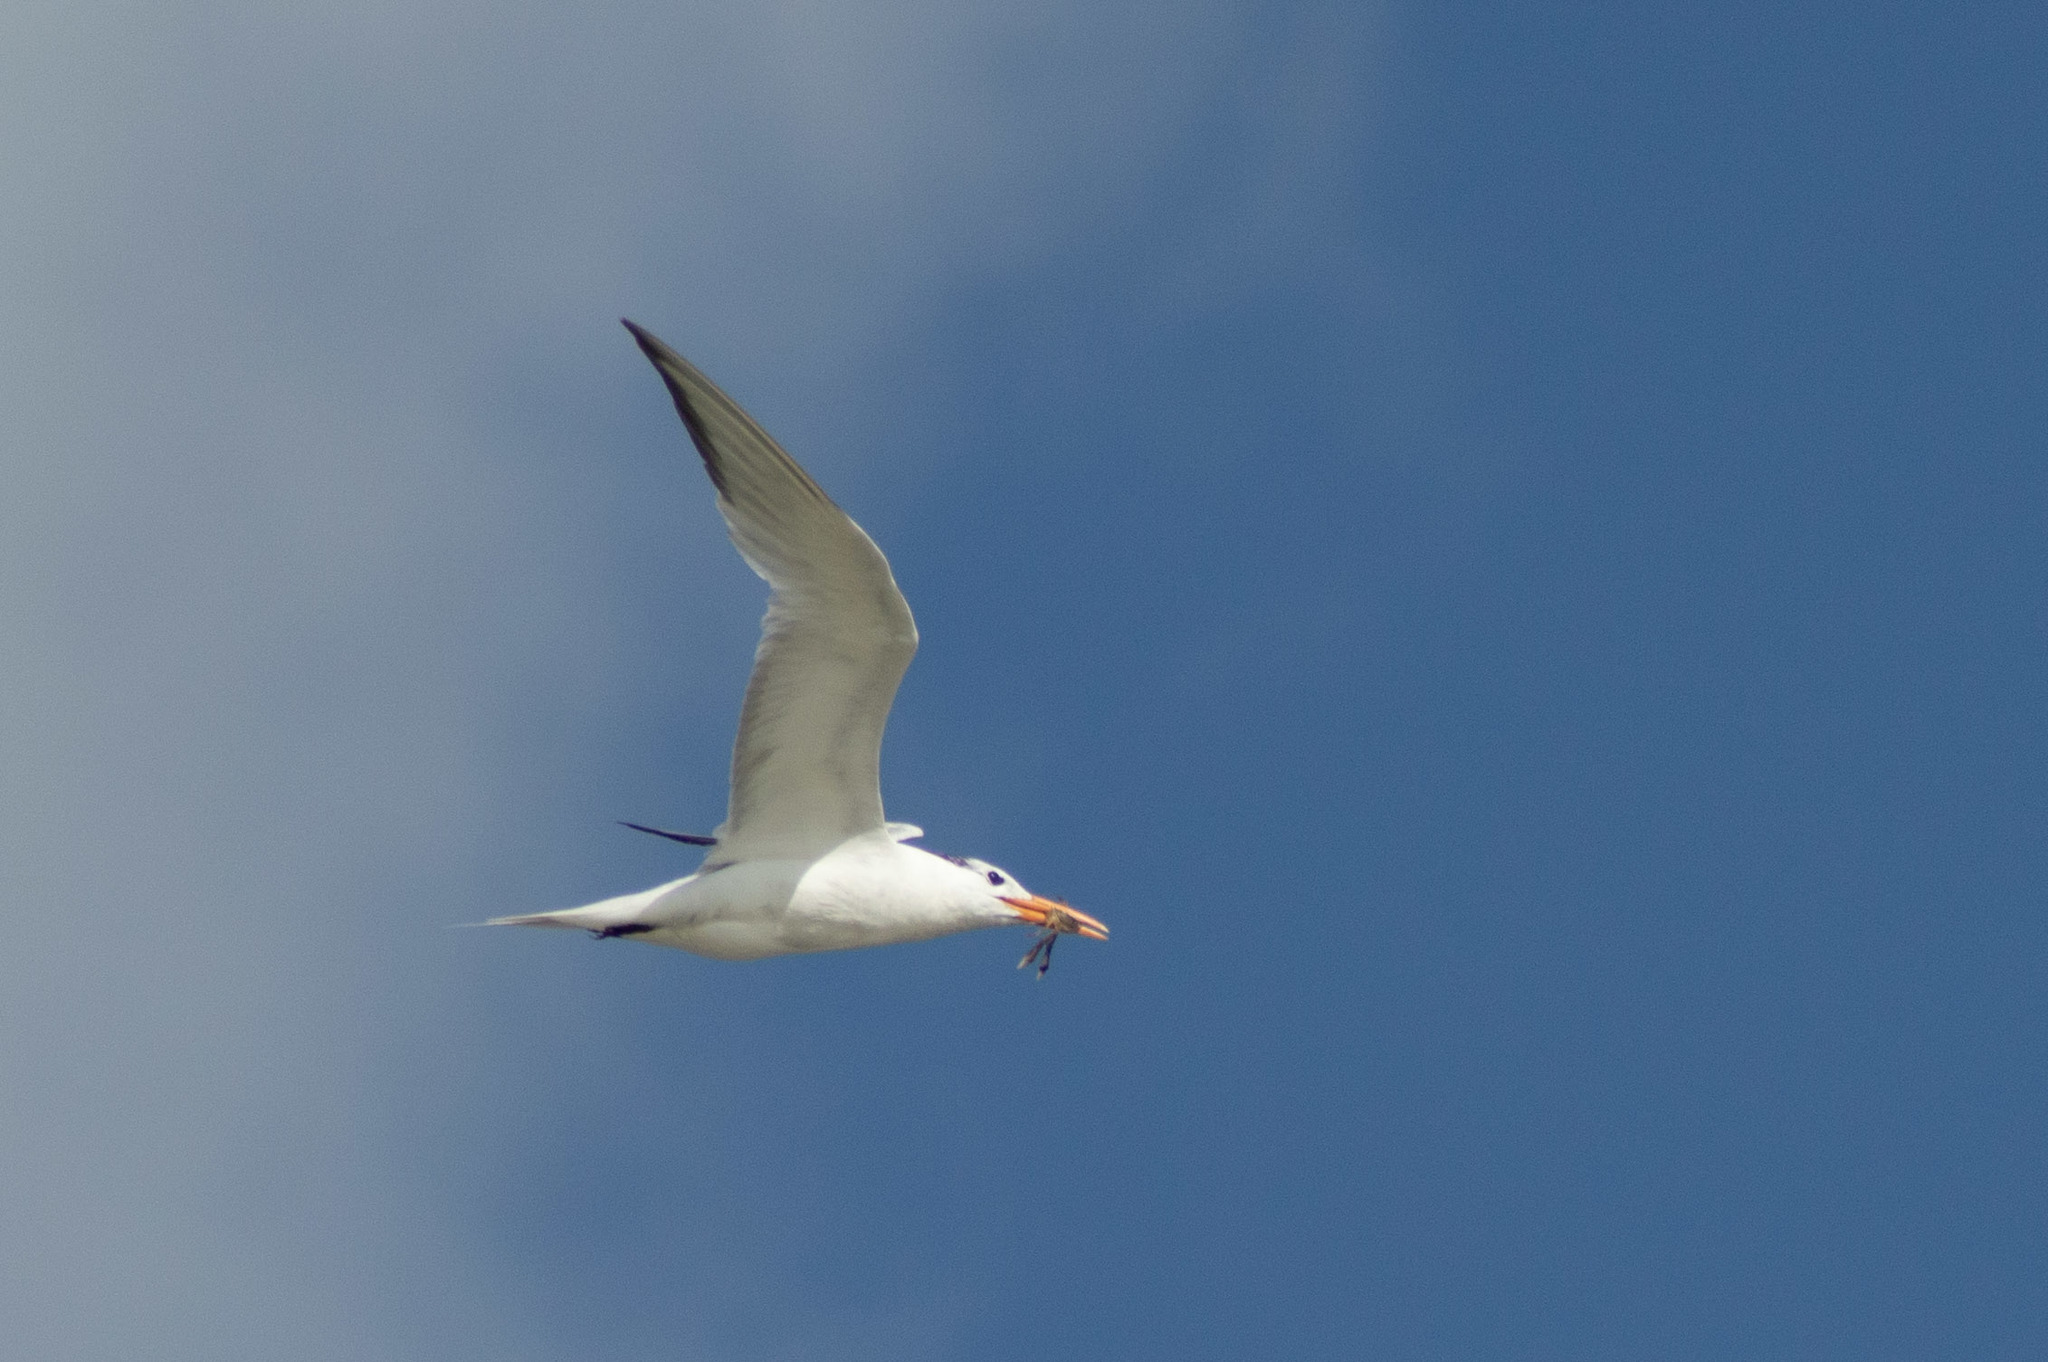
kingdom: Animalia
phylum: Chordata
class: Aves
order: Charadriiformes
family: Laridae
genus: Thalasseus
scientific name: Thalasseus maximus
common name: Royal tern
